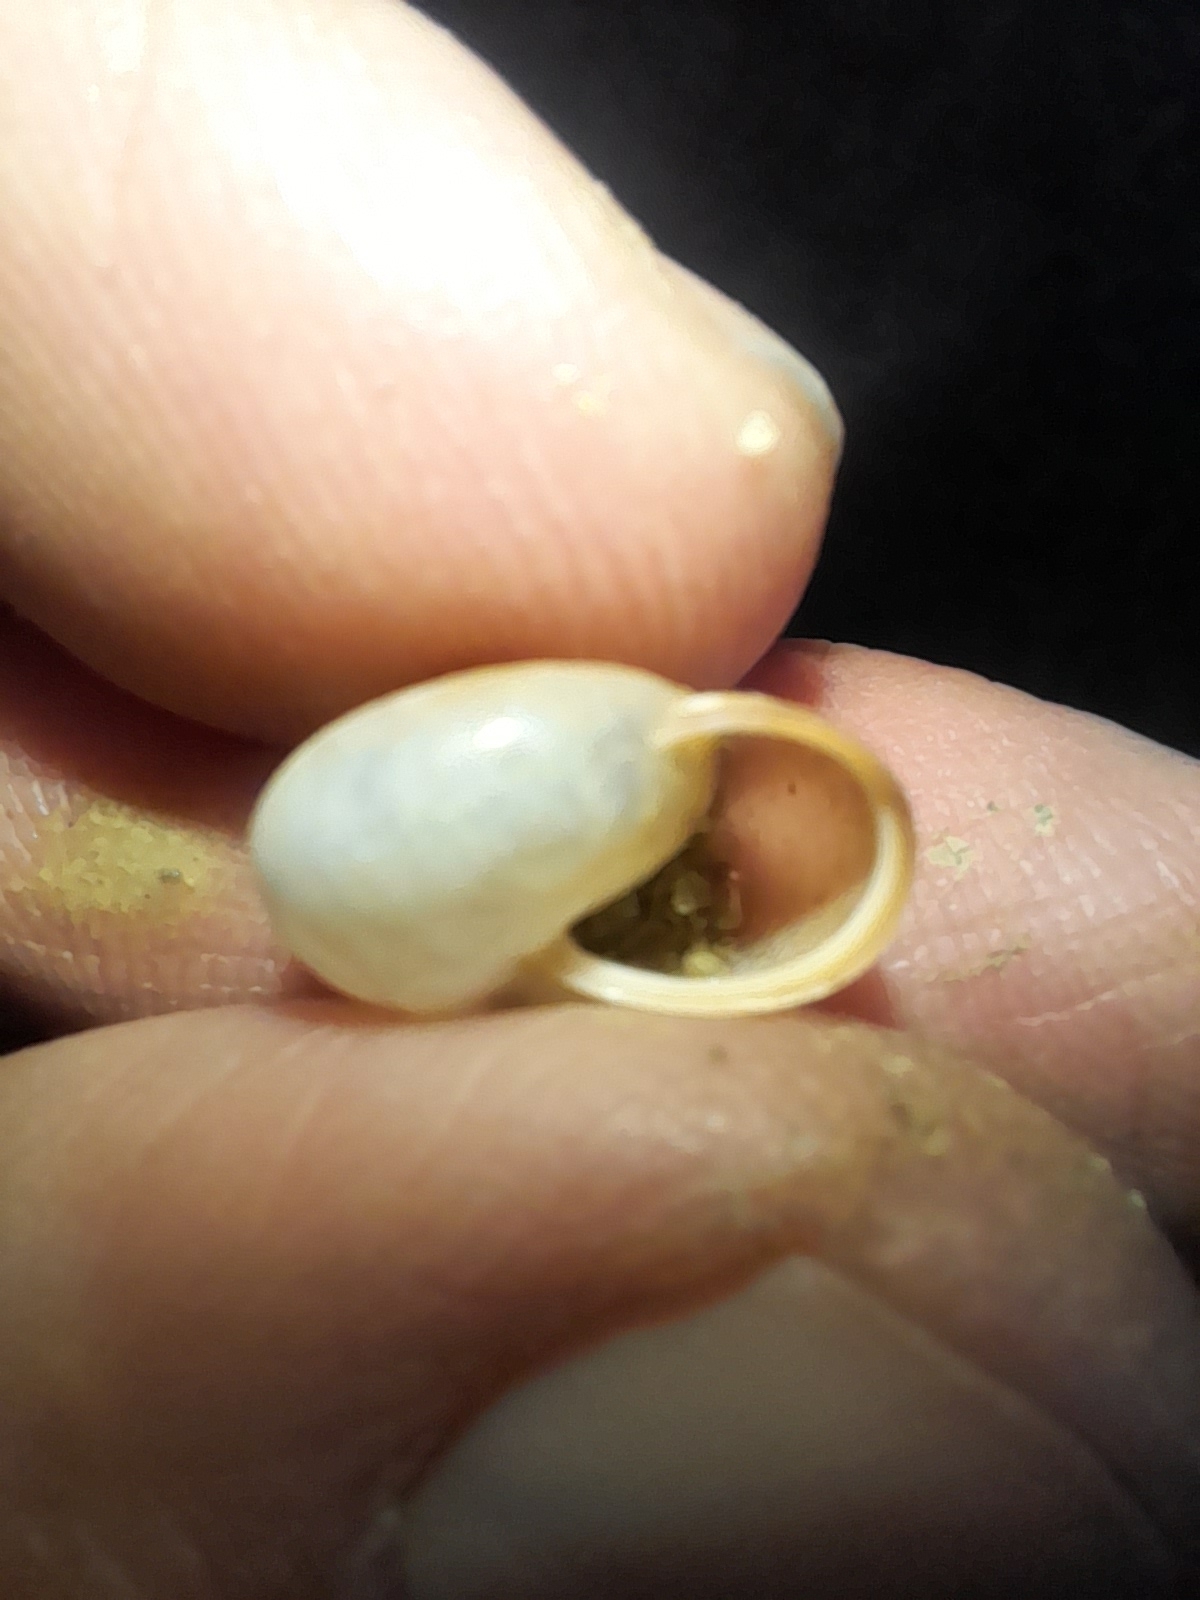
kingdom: Animalia
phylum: Mollusca
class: Gastropoda
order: Stylommatophora
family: Hygromiidae
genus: Monacha
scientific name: Monacha cartusiana
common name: Carthusian snail
